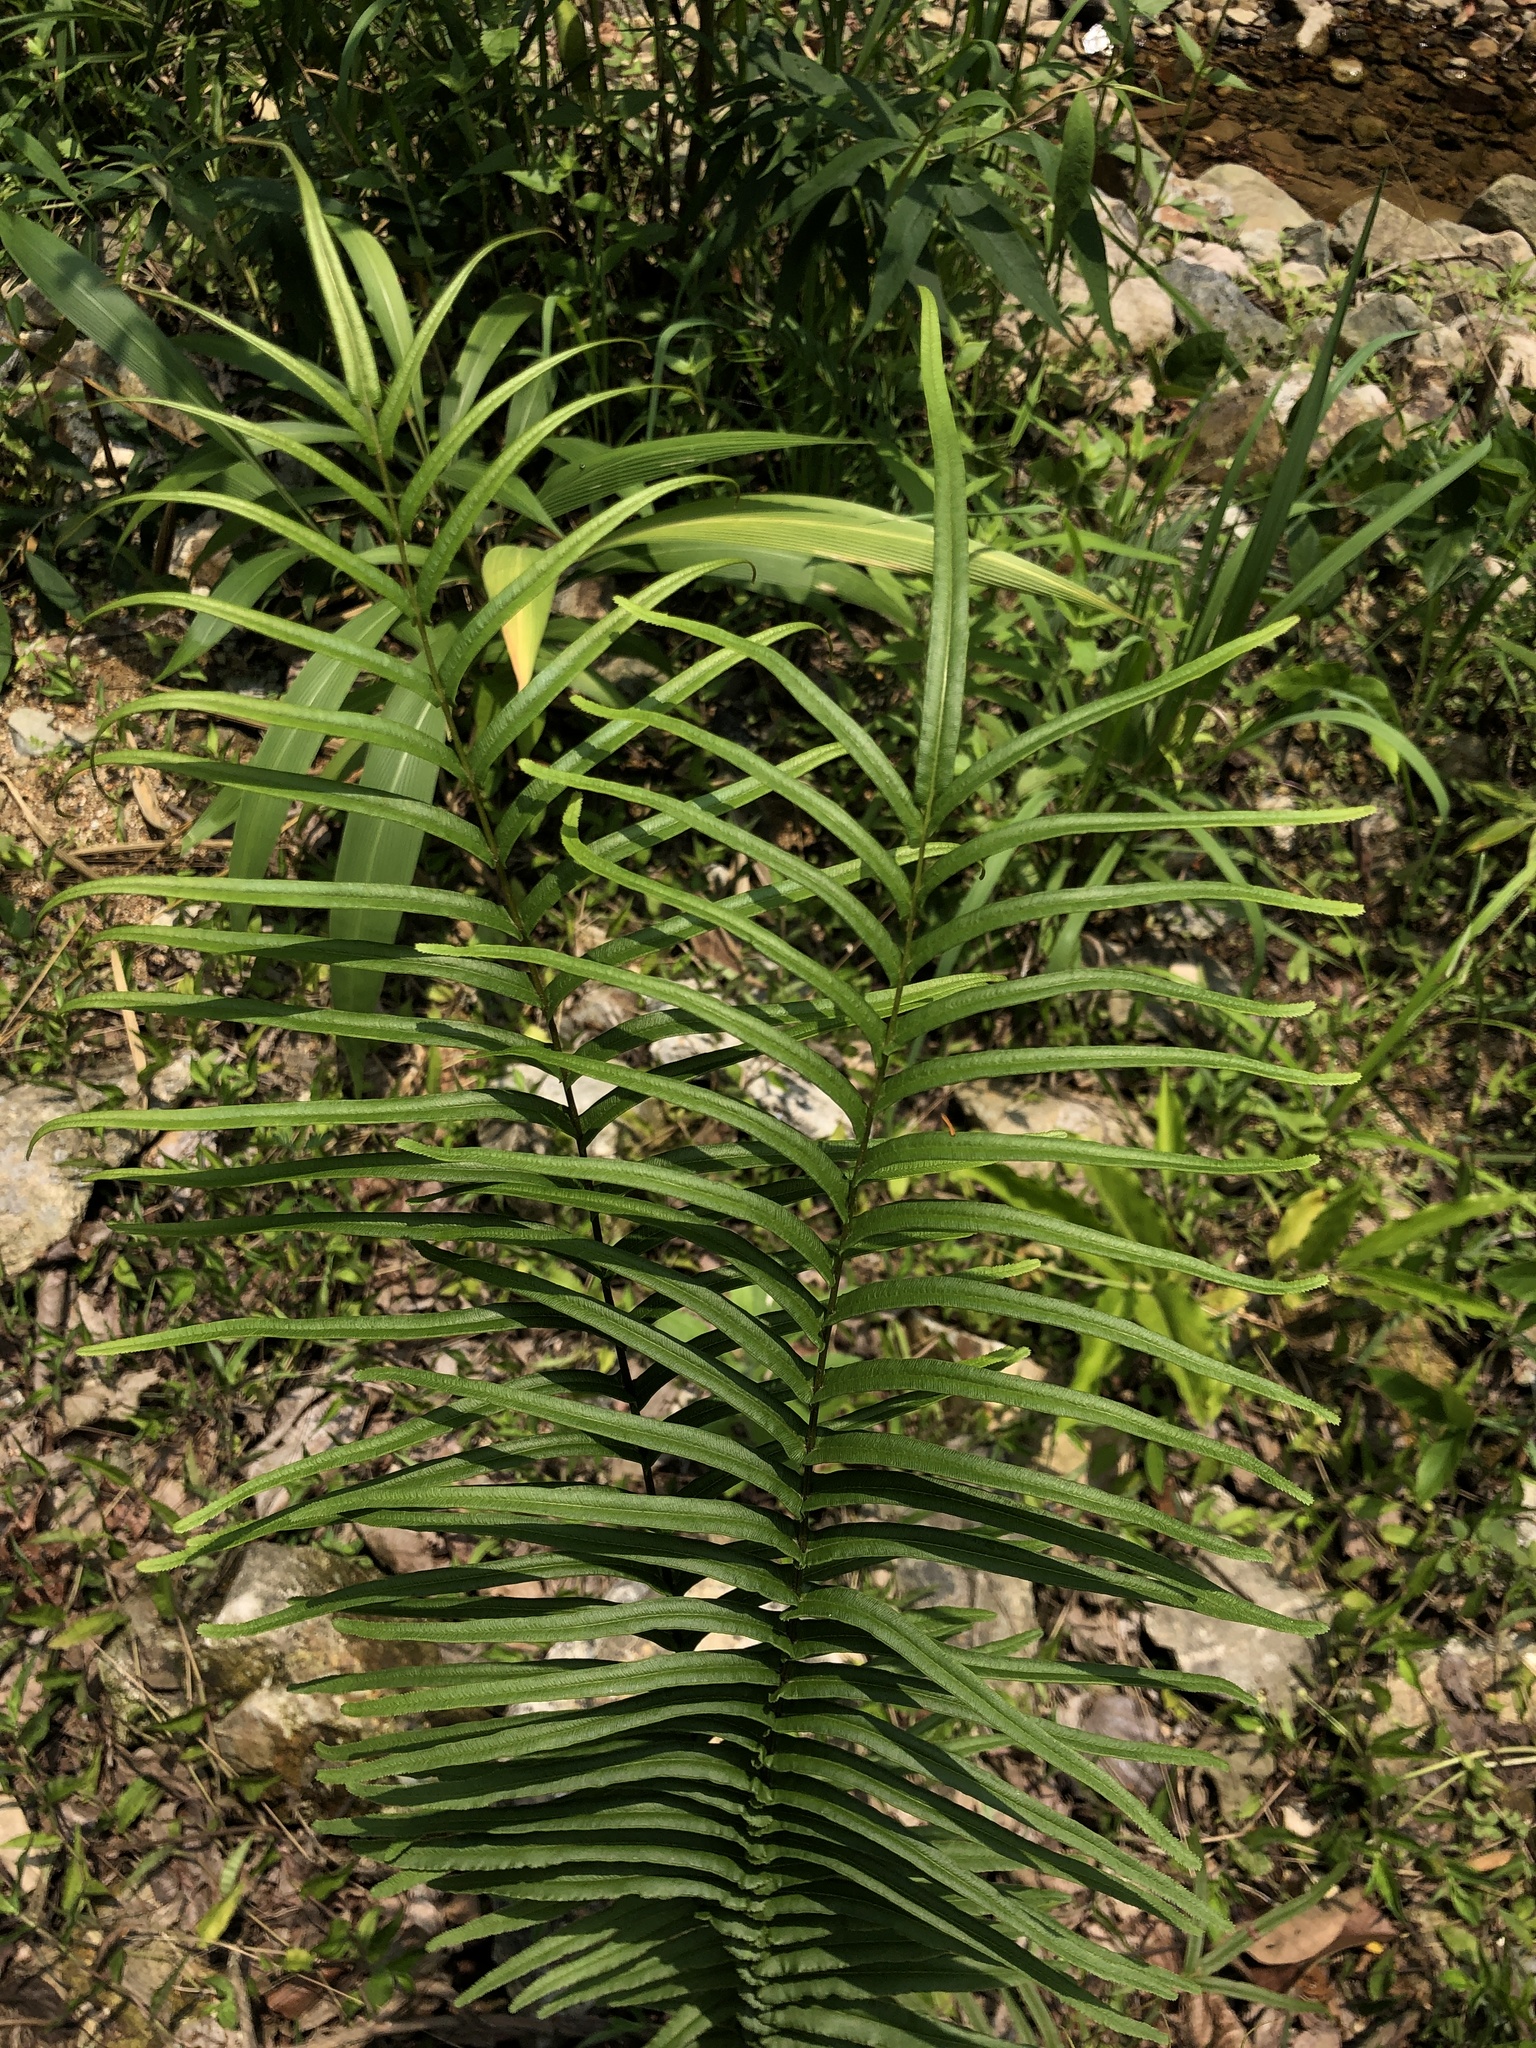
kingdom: Plantae
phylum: Tracheophyta
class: Polypodiopsida
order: Polypodiales
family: Pteridaceae
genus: Pteris
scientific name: Pteris vittata
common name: Ladder brake
